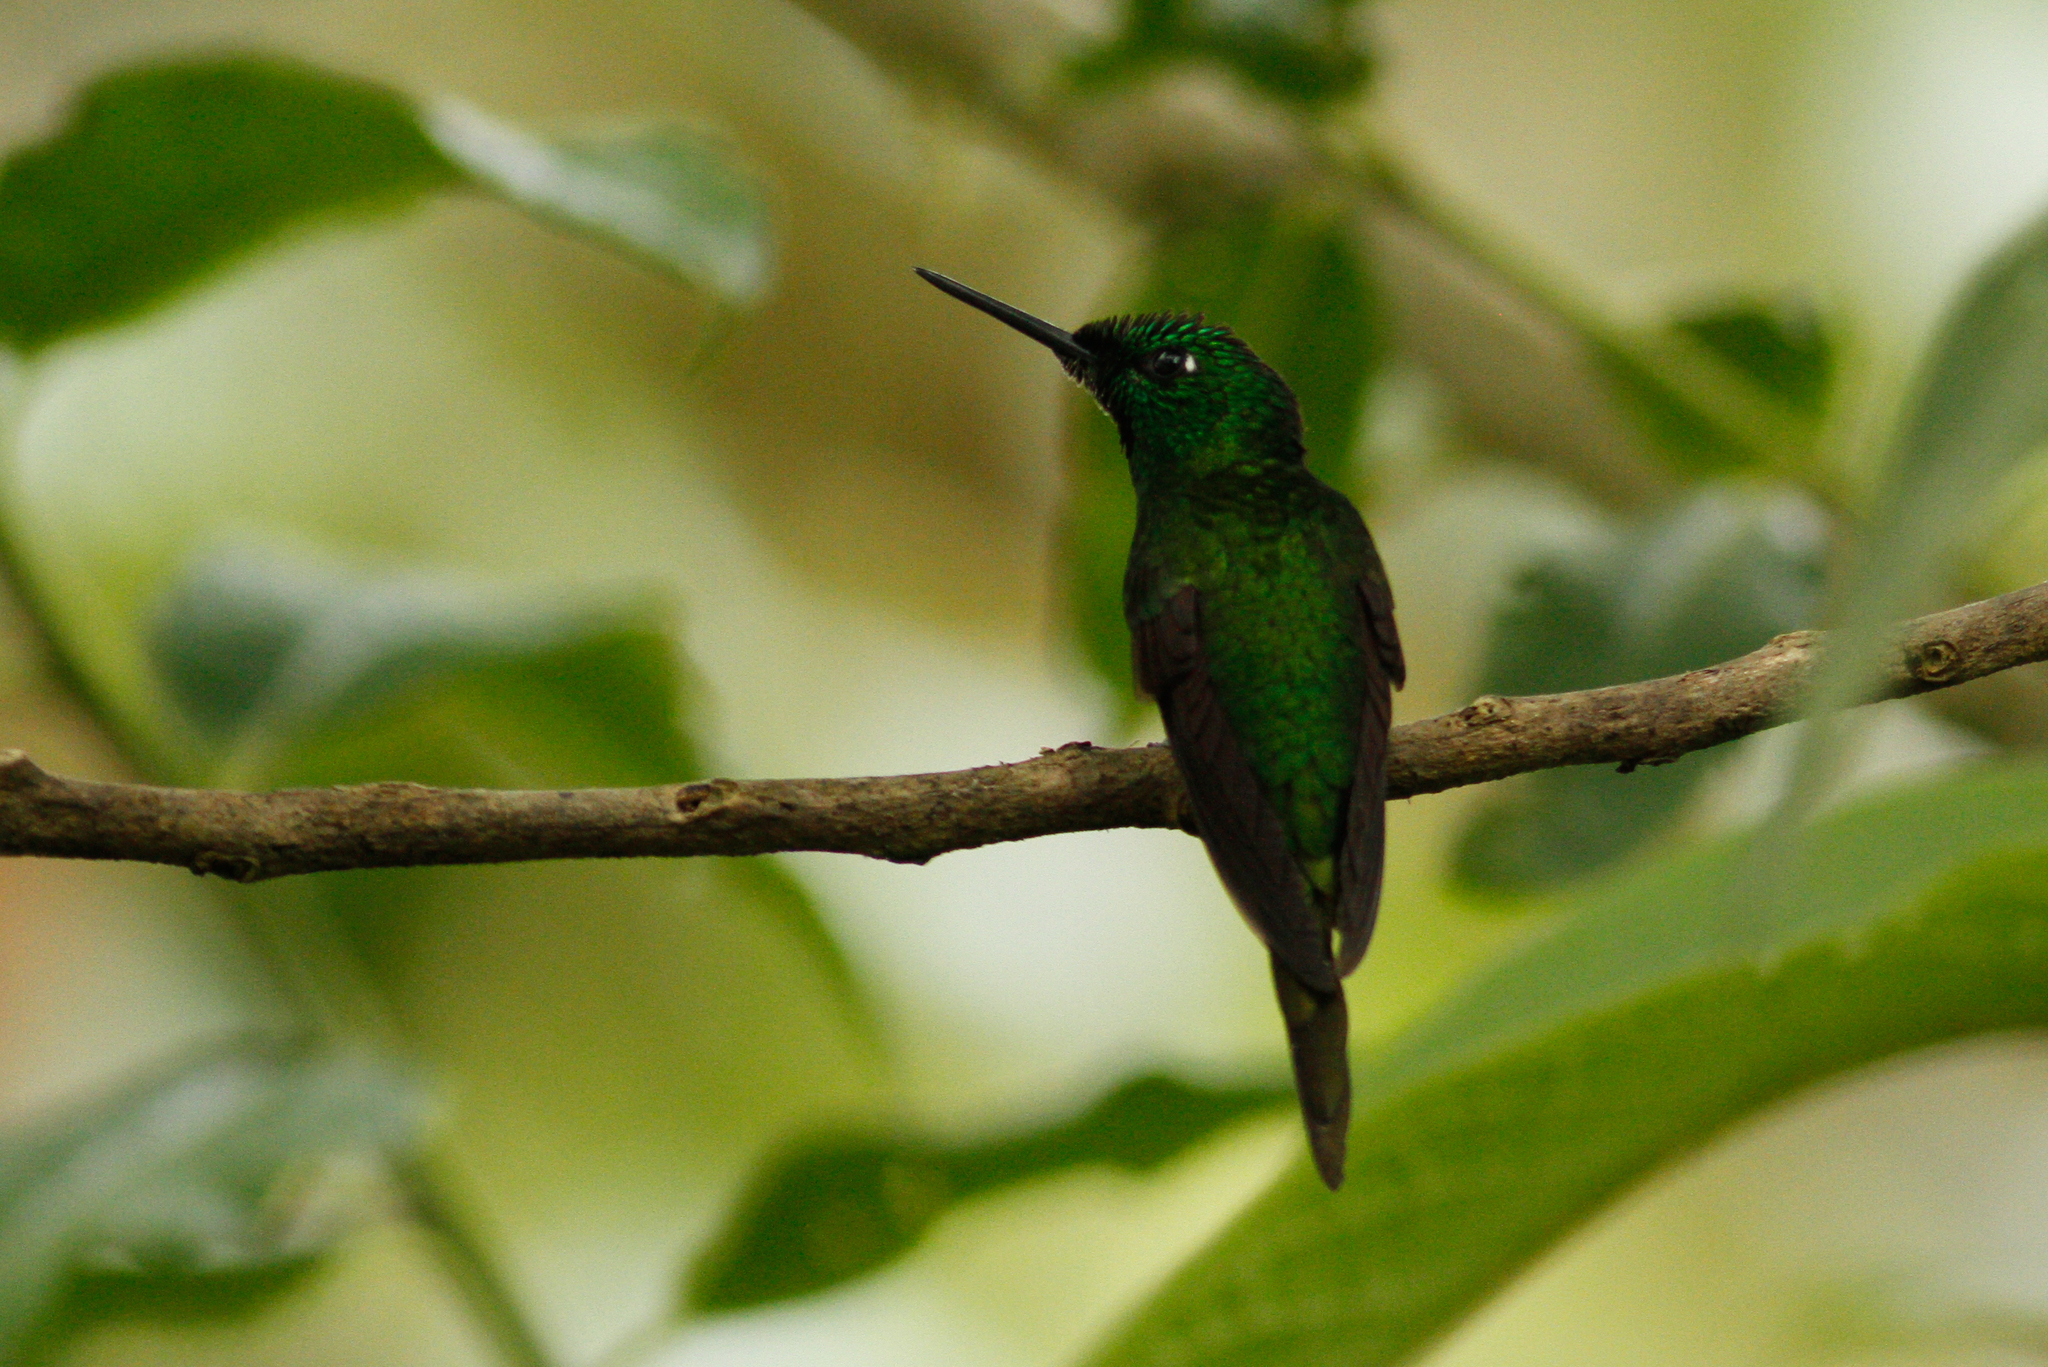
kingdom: Animalia
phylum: Chordata
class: Aves
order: Apodiformes
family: Trochilidae
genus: Heliodoxa
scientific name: Heliodoxa imperatrix
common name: Empress brilliant
